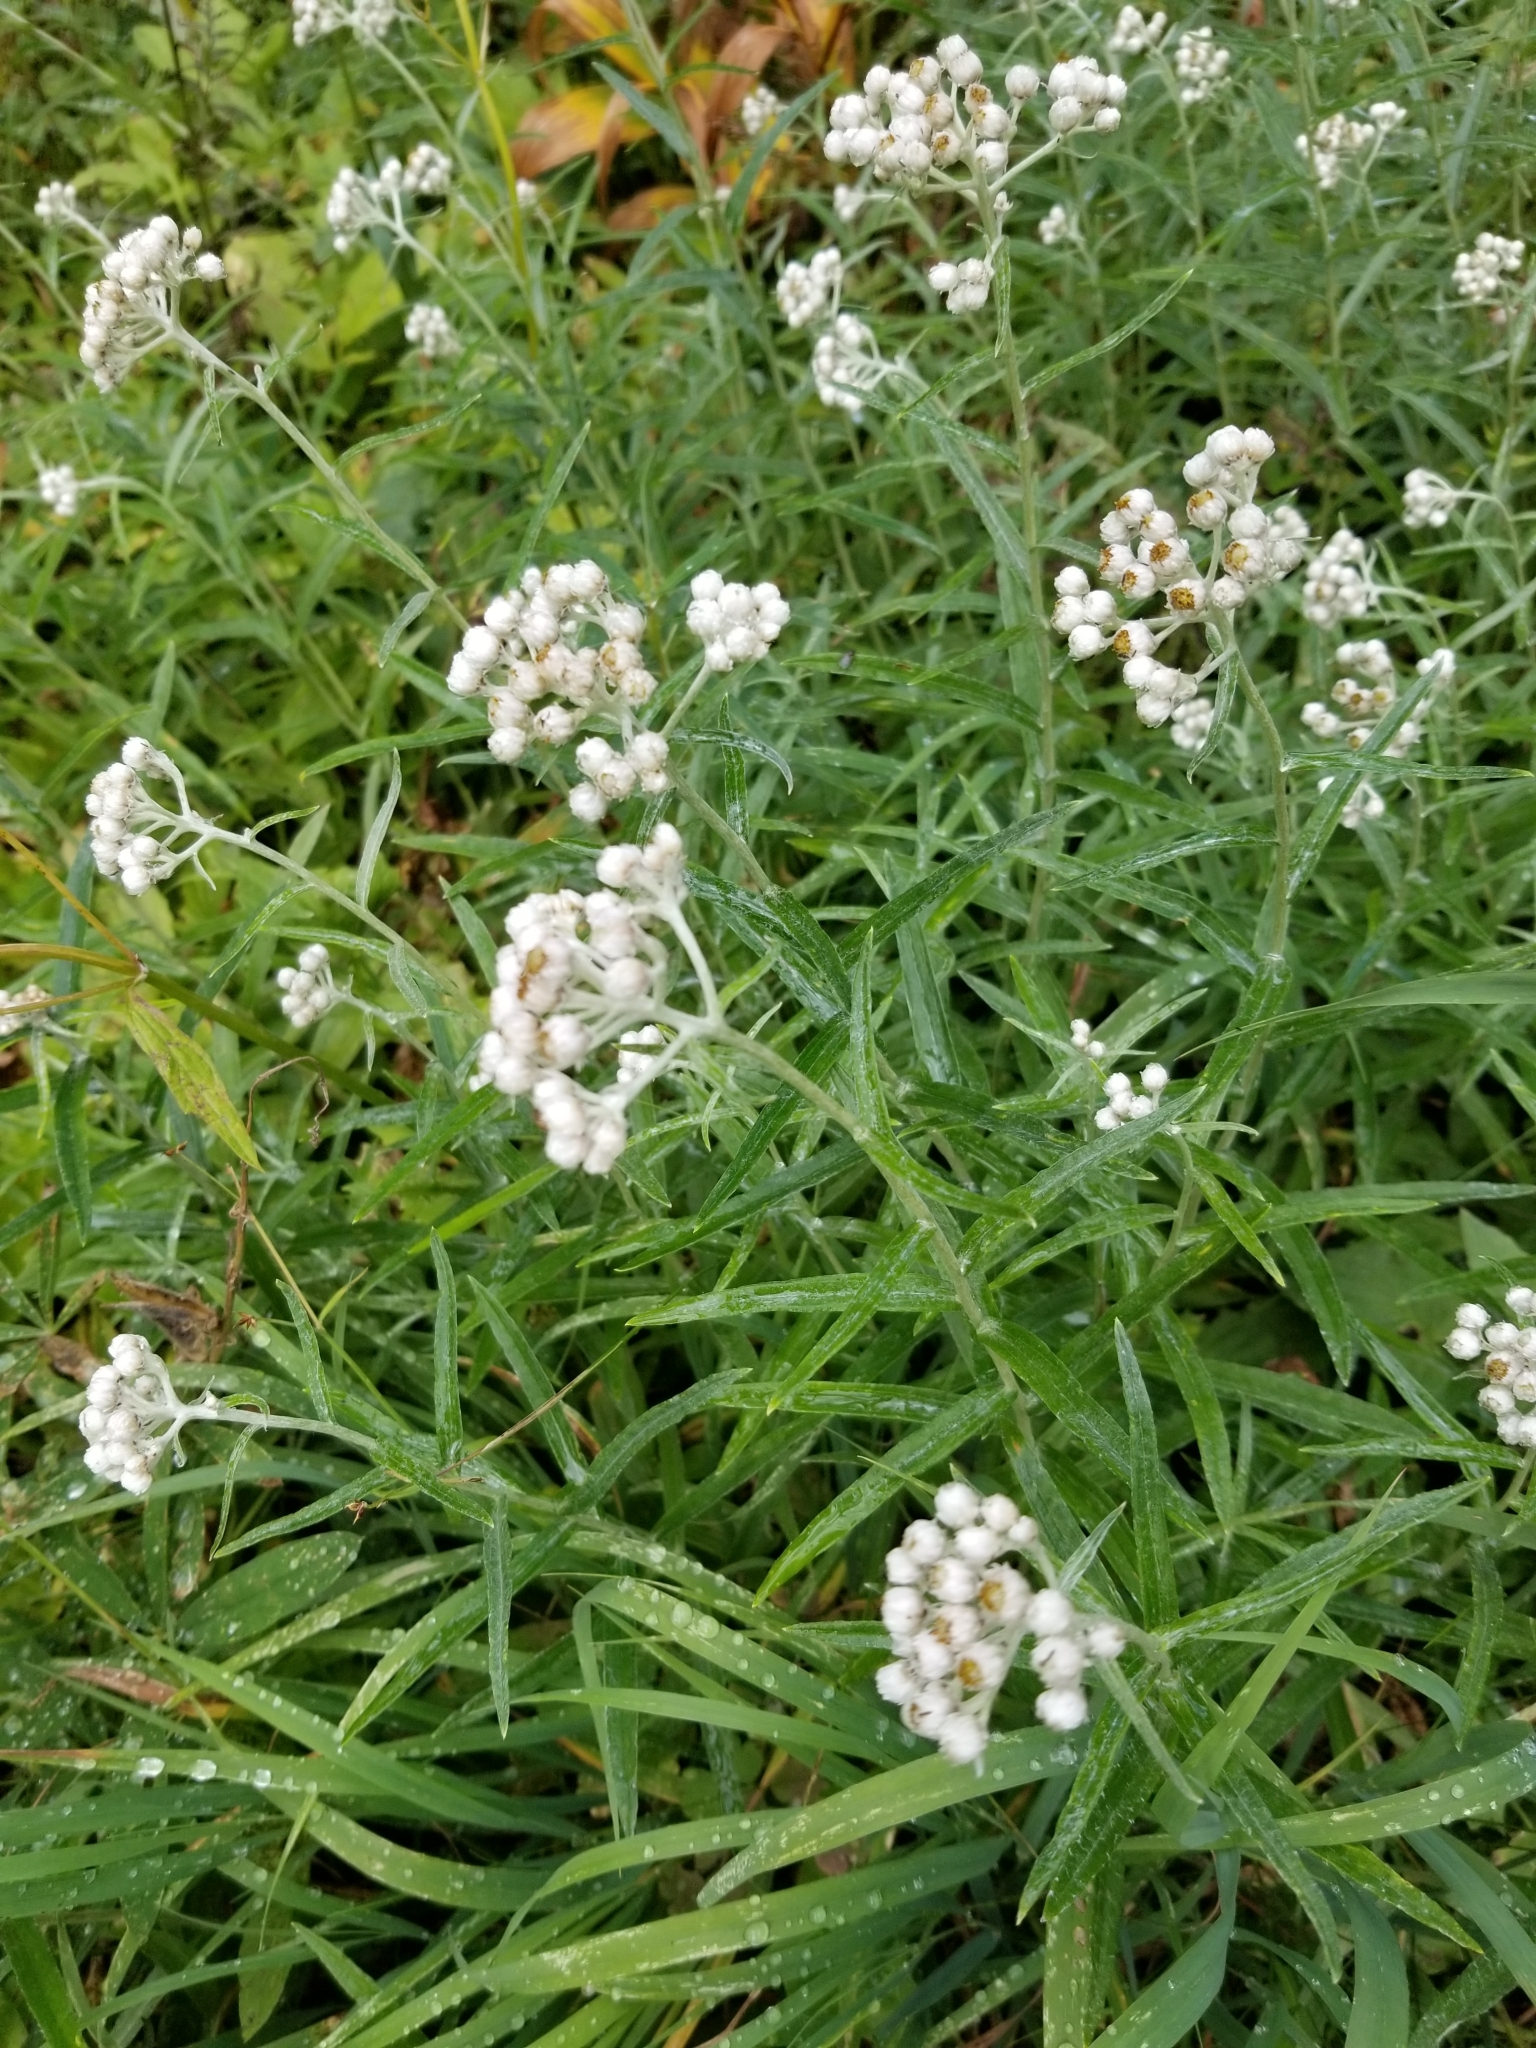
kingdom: Plantae
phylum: Tracheophyta
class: Magnoliopsida
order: Asterales
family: Asteraceae
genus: Anaphalis
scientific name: Anaphalis margaritacea
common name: Pearly everlasting
